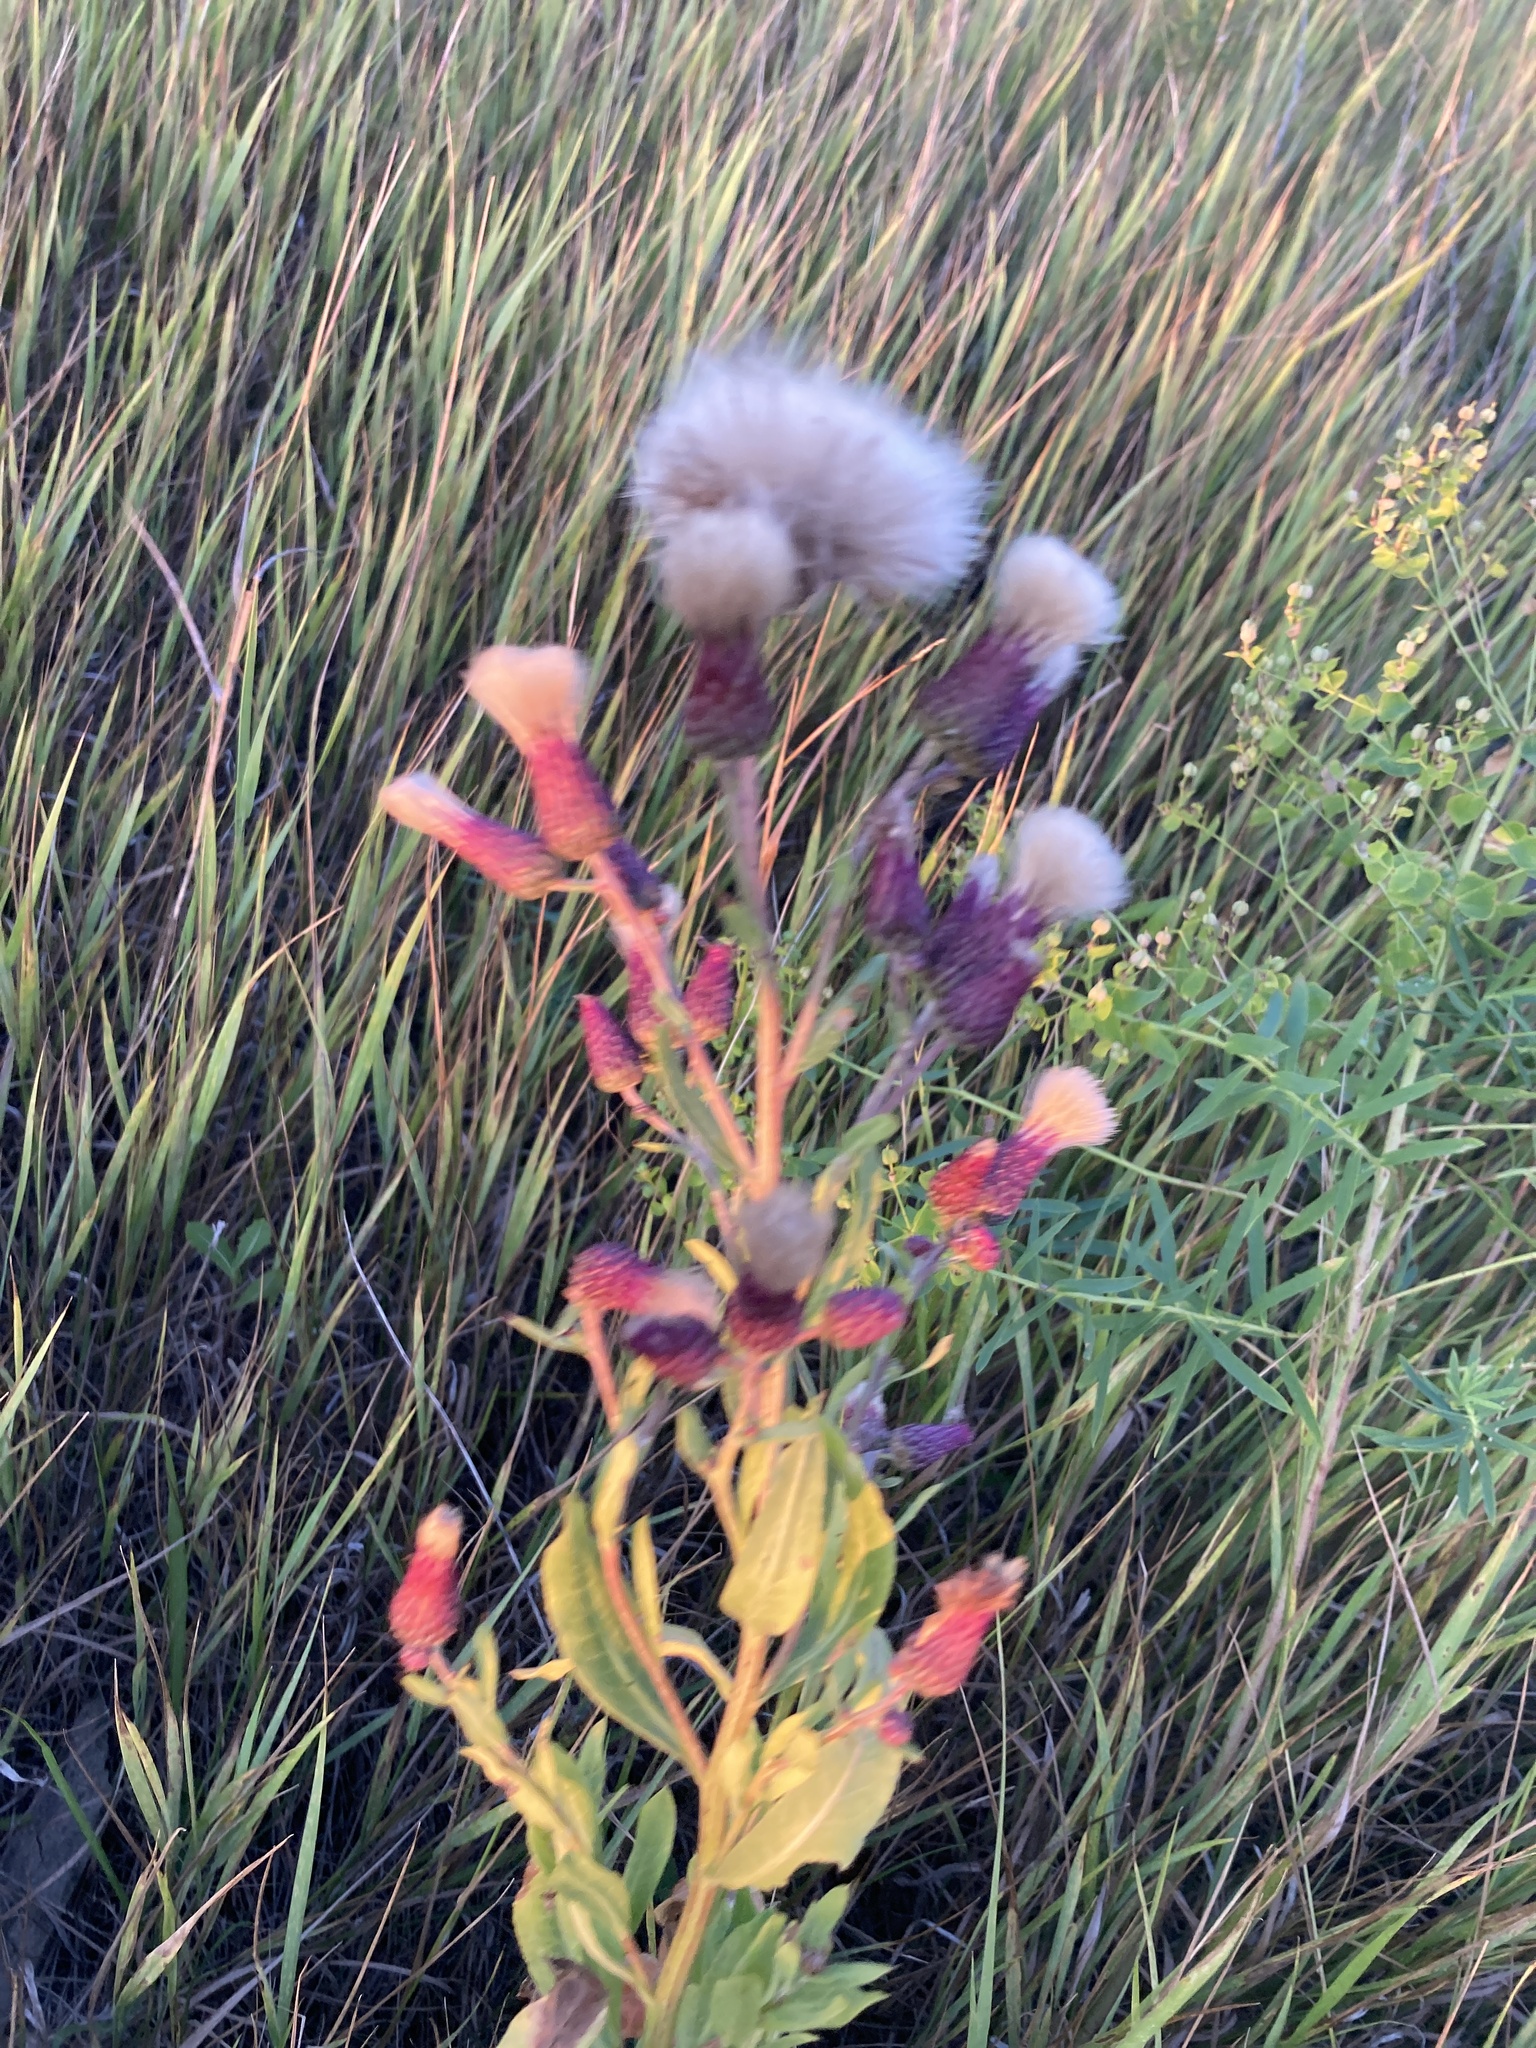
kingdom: Plantae
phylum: Tracheophyta
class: Magnoliopsida
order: Asterales
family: Asteraceae
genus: Cirsium
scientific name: Cirsium arvense
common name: Creeping thistle
